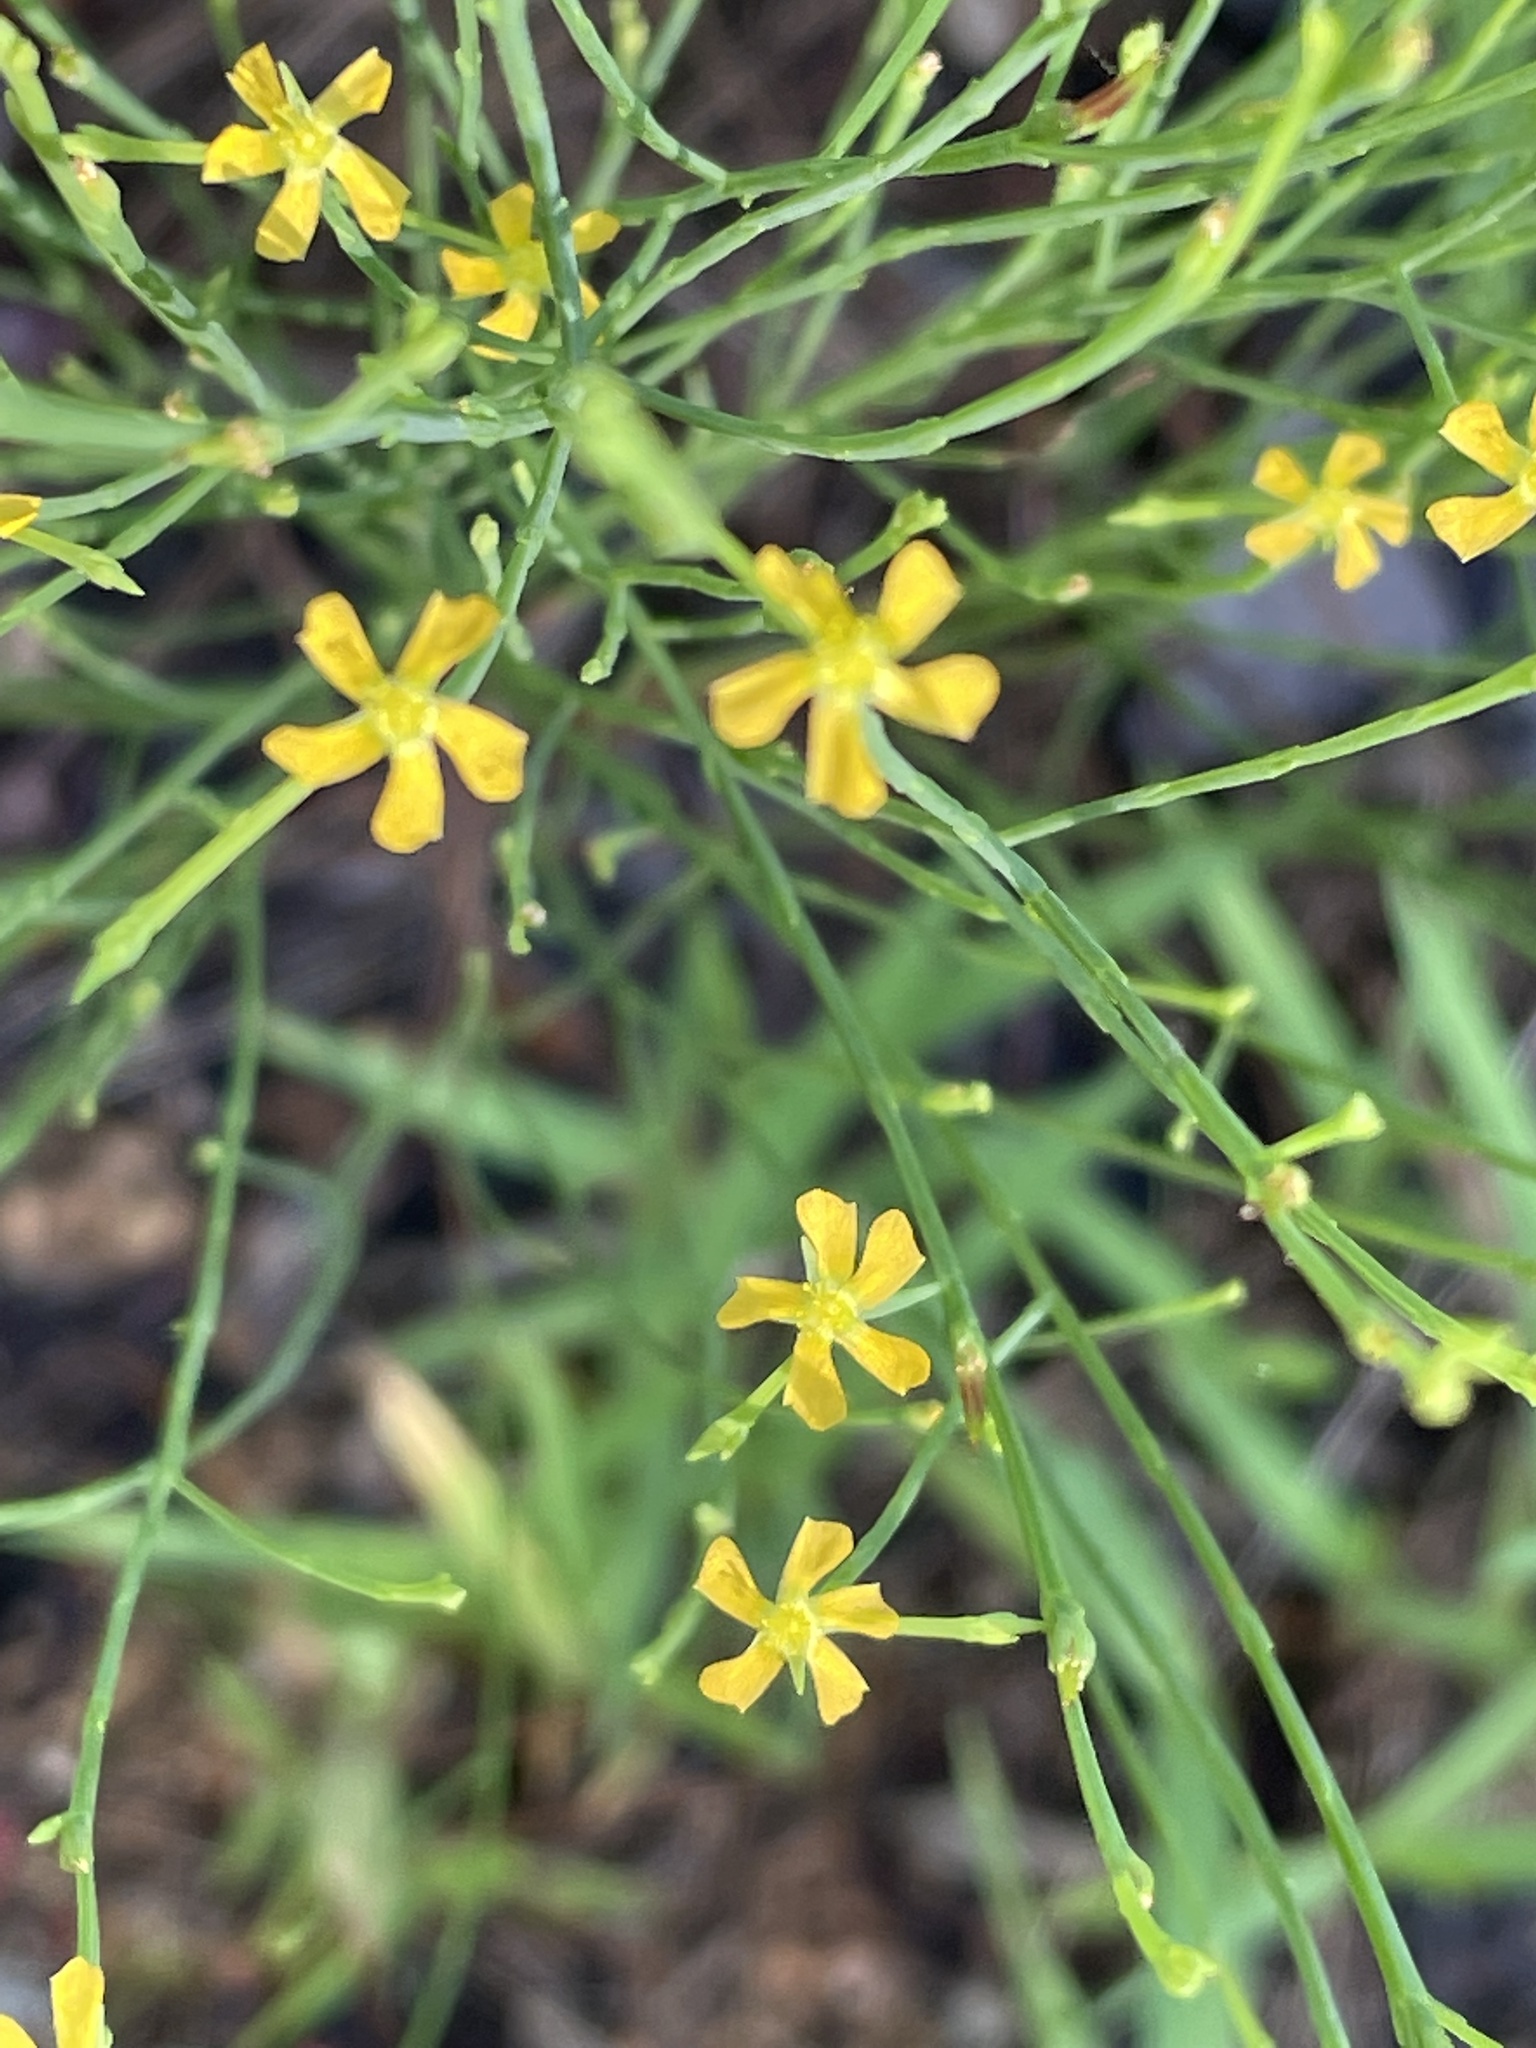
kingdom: Plantae
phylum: Tracheophyta
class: Magnoliopsida
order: Malpighiales
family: Hypericaceae
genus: Hypericum
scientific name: Hypericum gentianoides
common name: Gentian-leaved st. john's-wort
